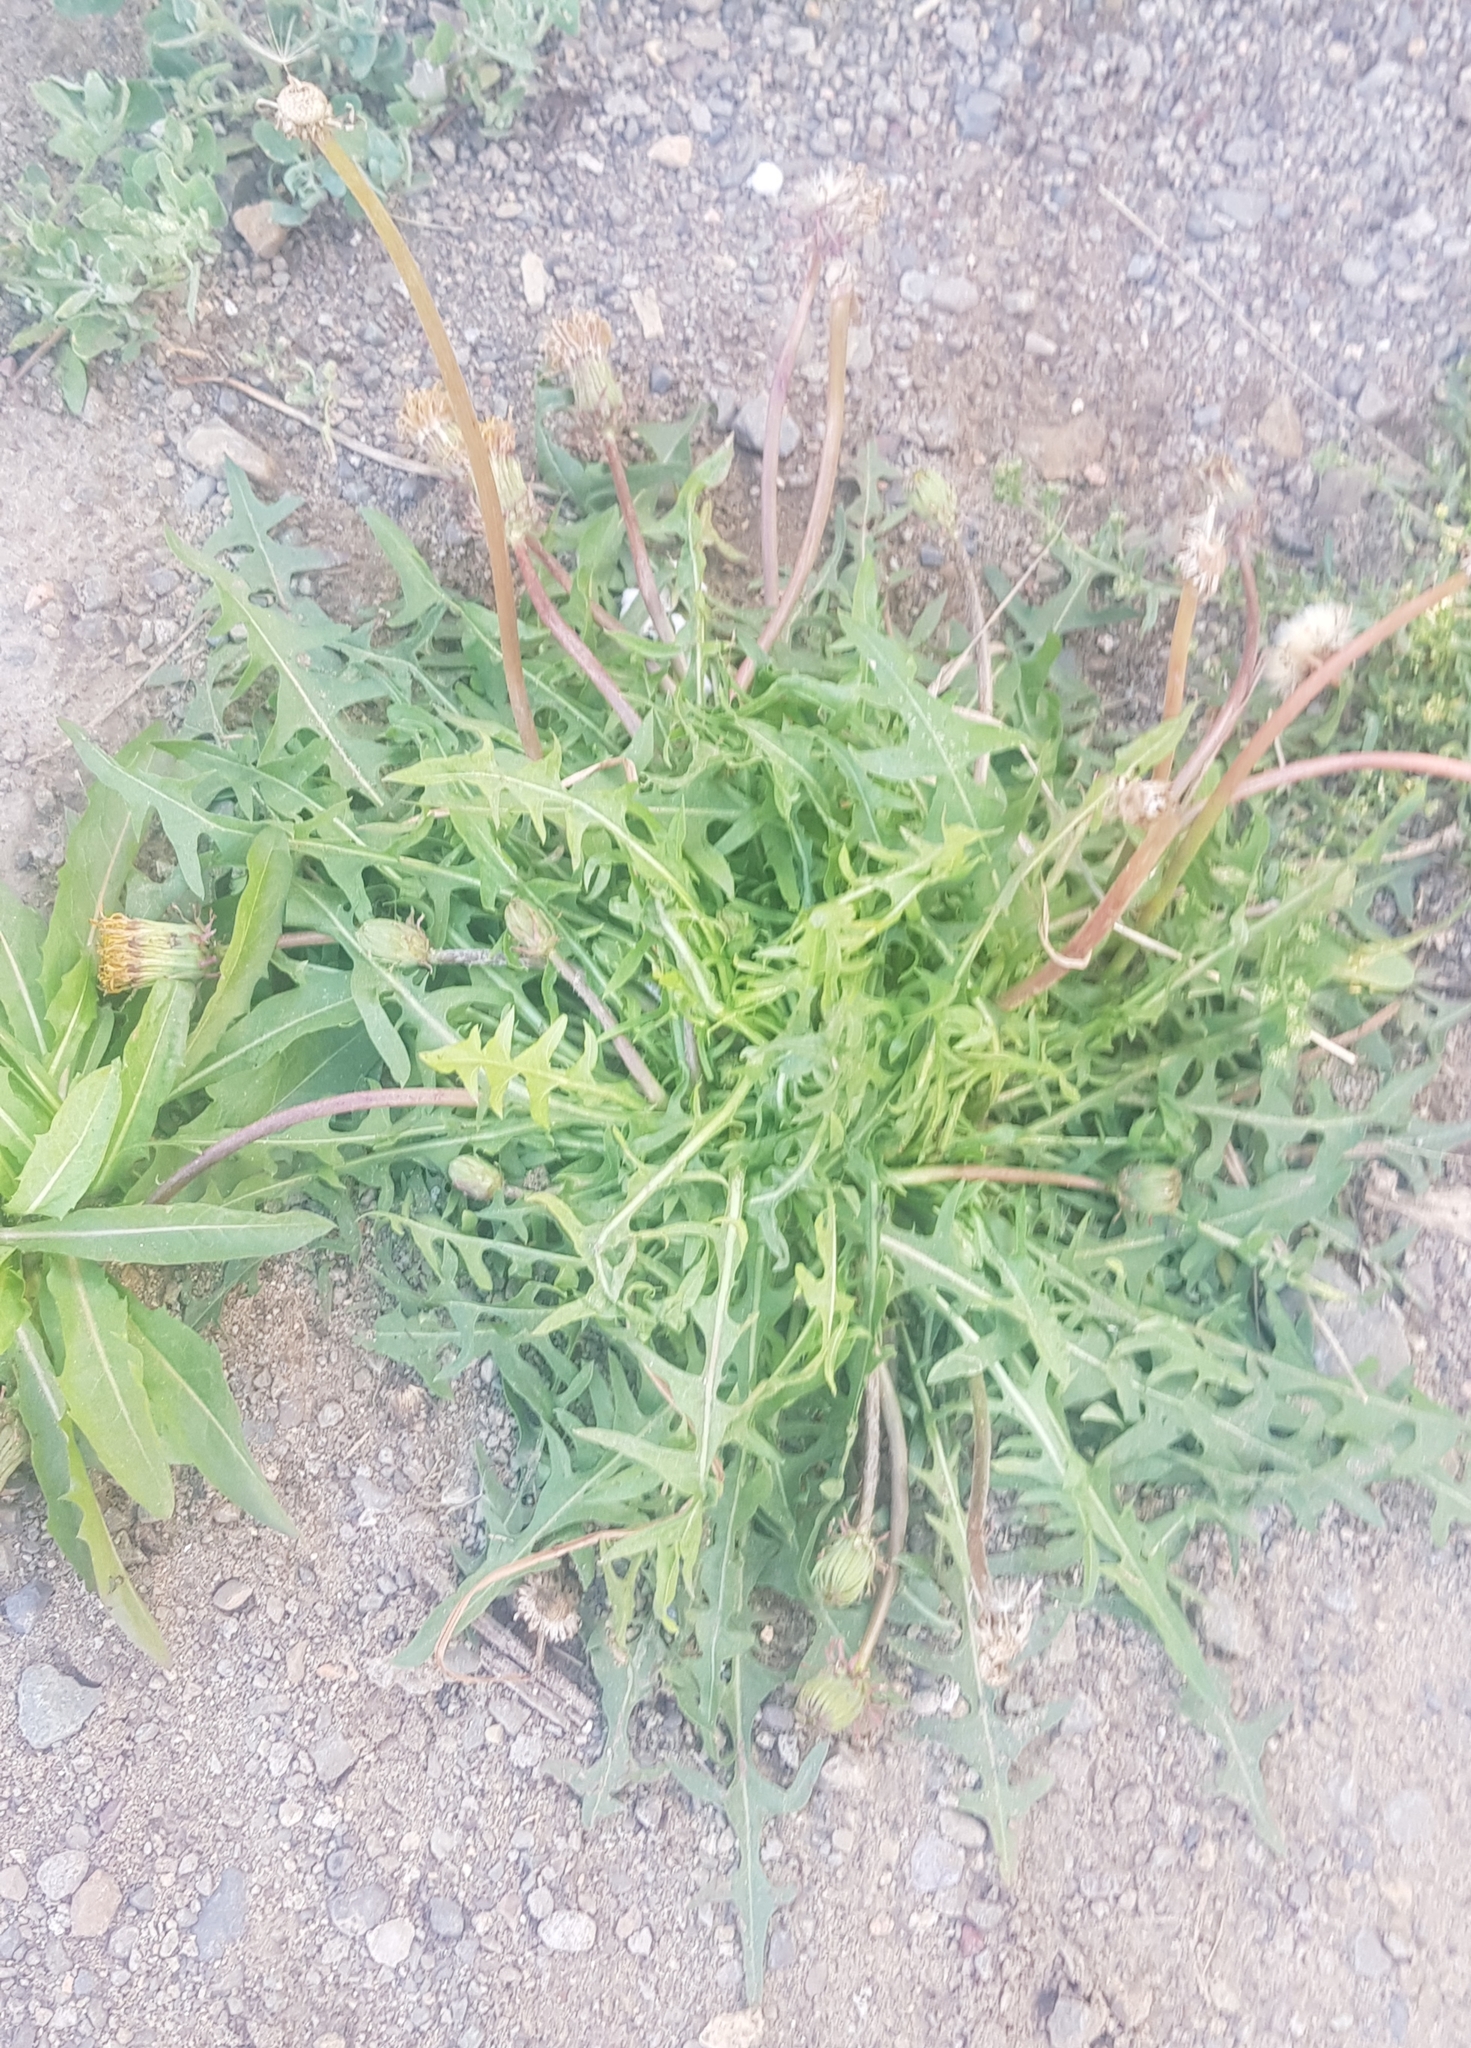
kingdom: Plantae
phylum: Tracheophyta
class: Magnoliopsida
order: Asterales
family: Asteraceae
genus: Taraxacum
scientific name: Taraxacum officinale
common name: Common dandelion
